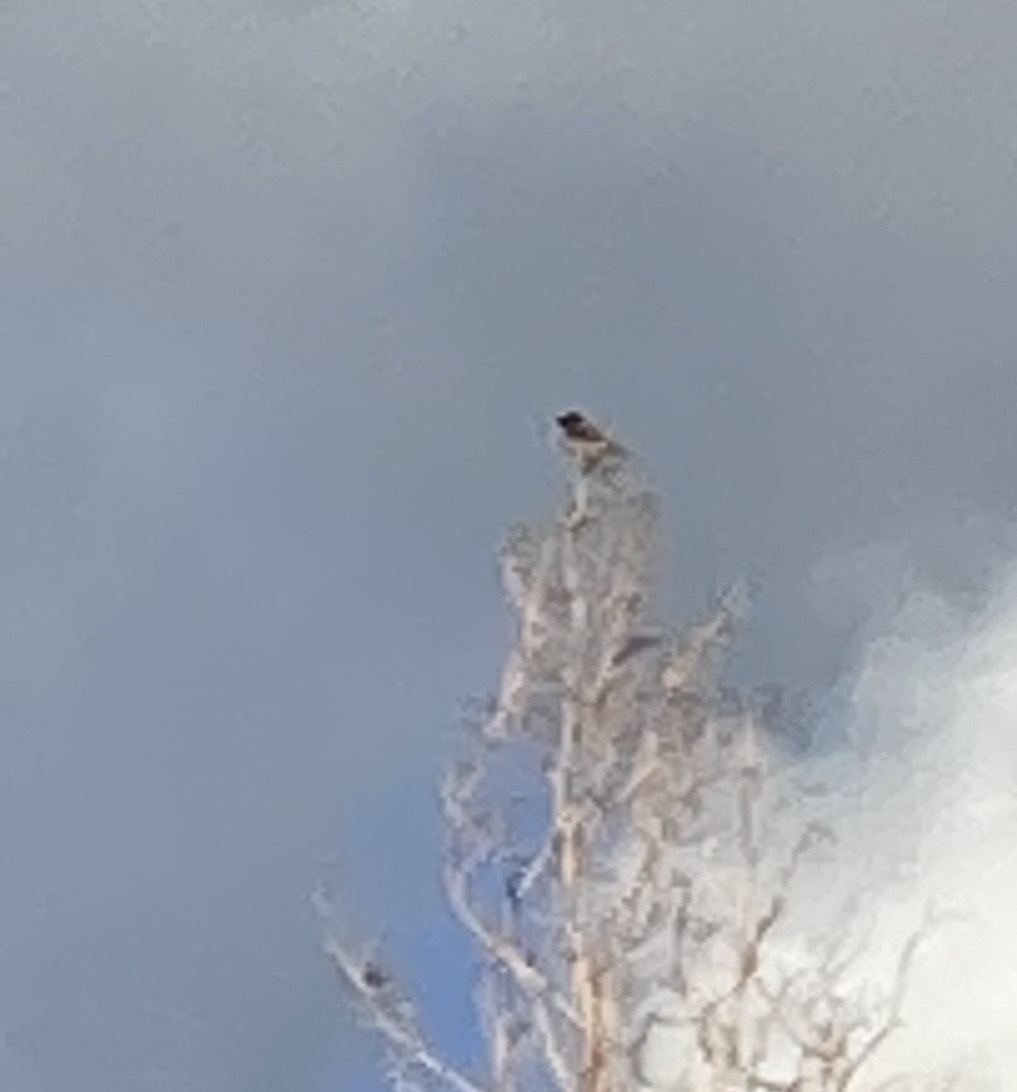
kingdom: Animalia
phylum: Chordata
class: Aves
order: Passeriformes
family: Muscicapidae
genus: Saxicola
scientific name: Saxicola rubicola
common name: European stonechat
